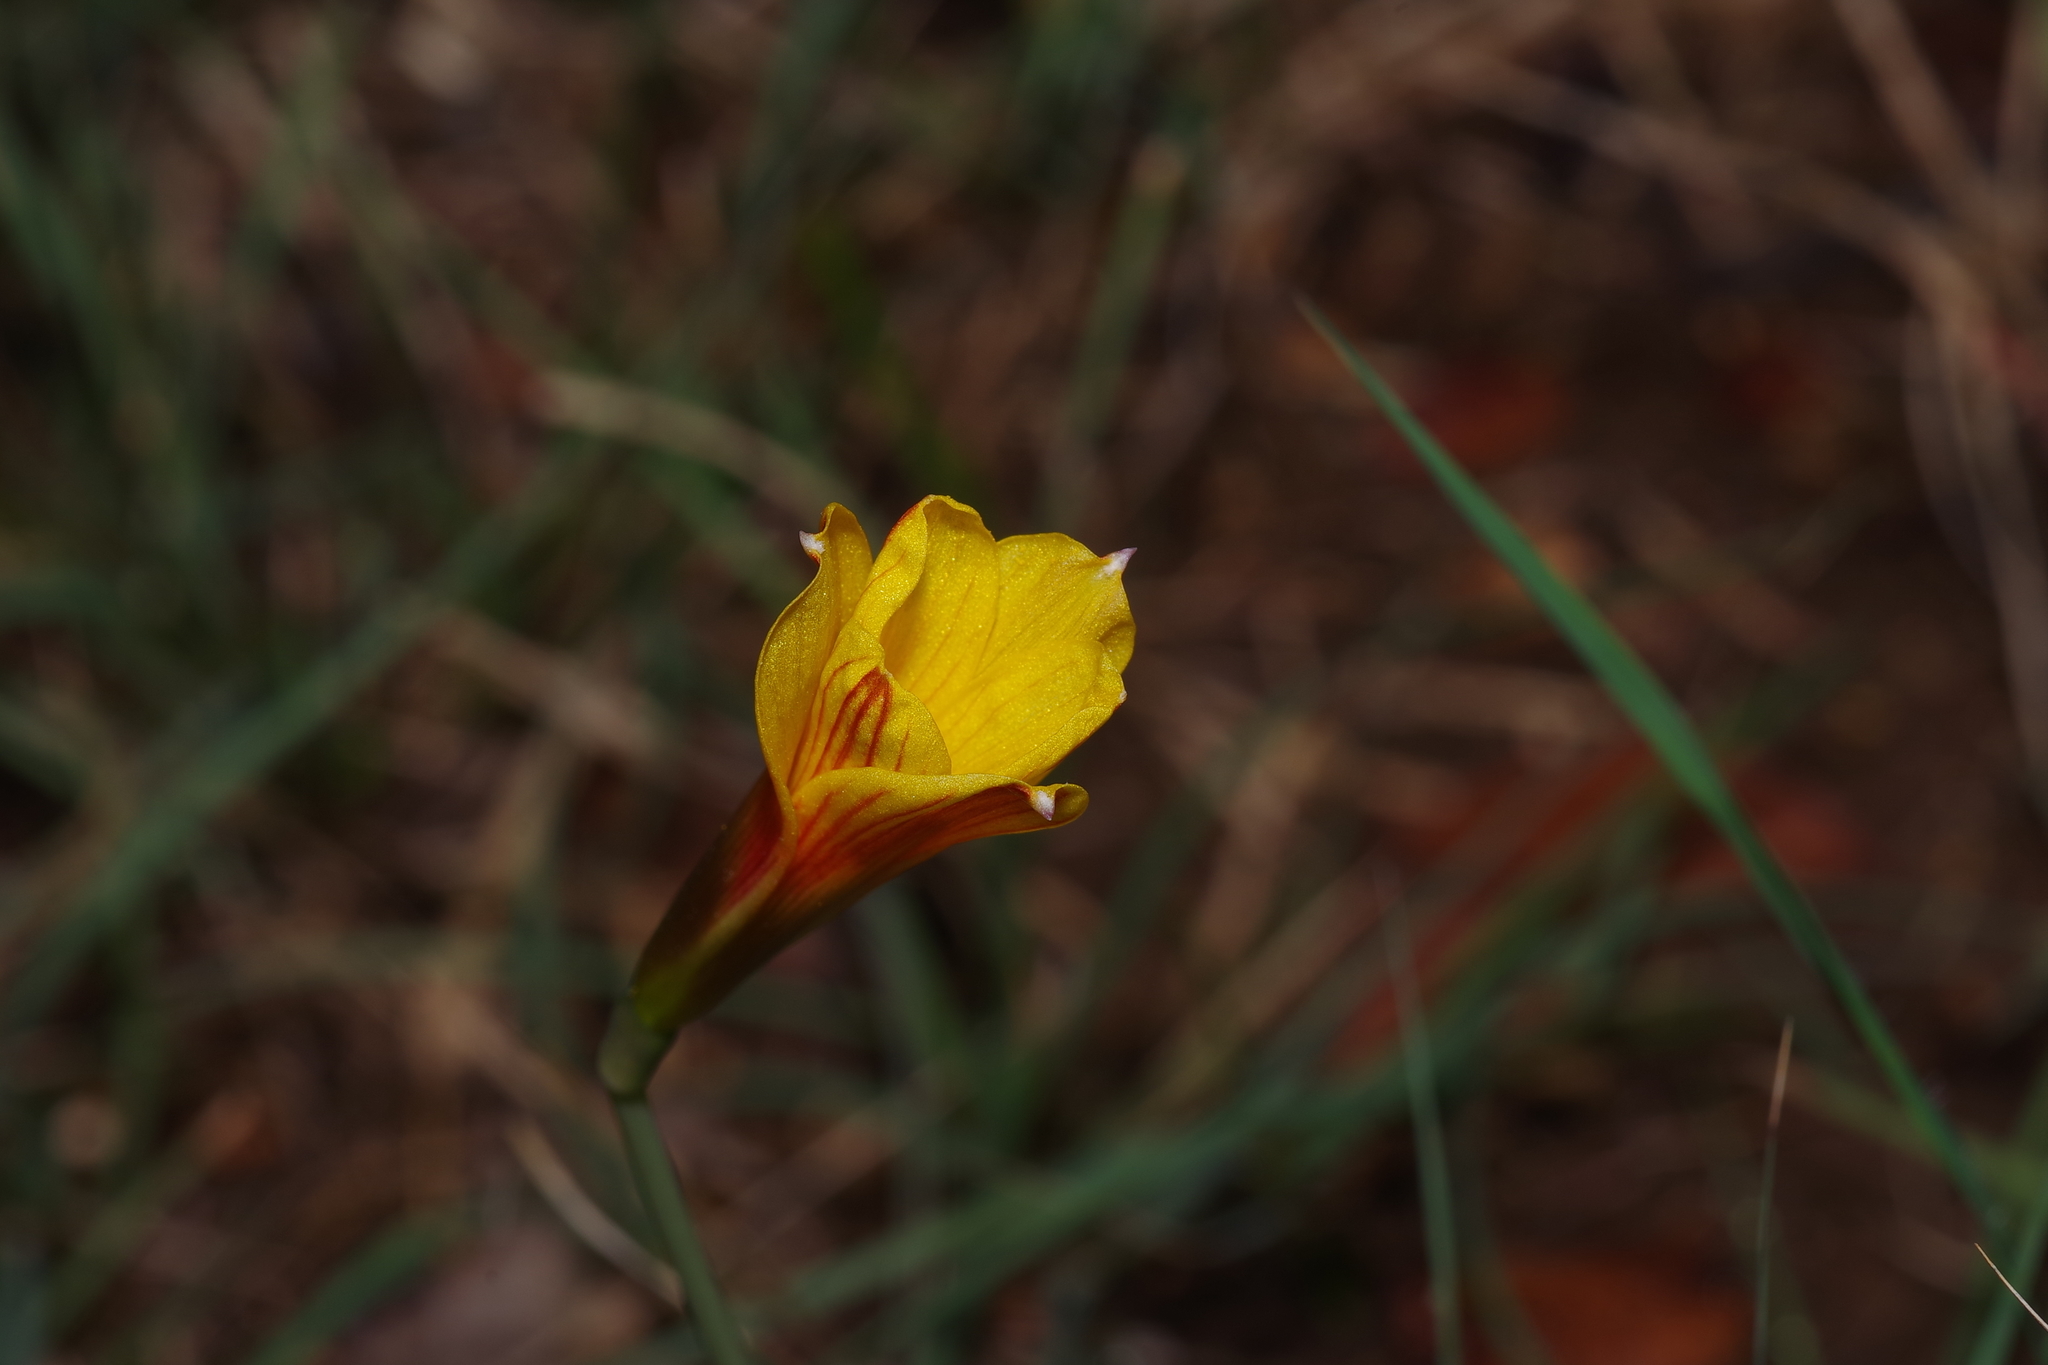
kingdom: Plantae
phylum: Tracheophyta
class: Liliopsida
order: Asparagales
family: Amaryllidaceae
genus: Zephyranthes
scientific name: Zephyranthes tubispatha
